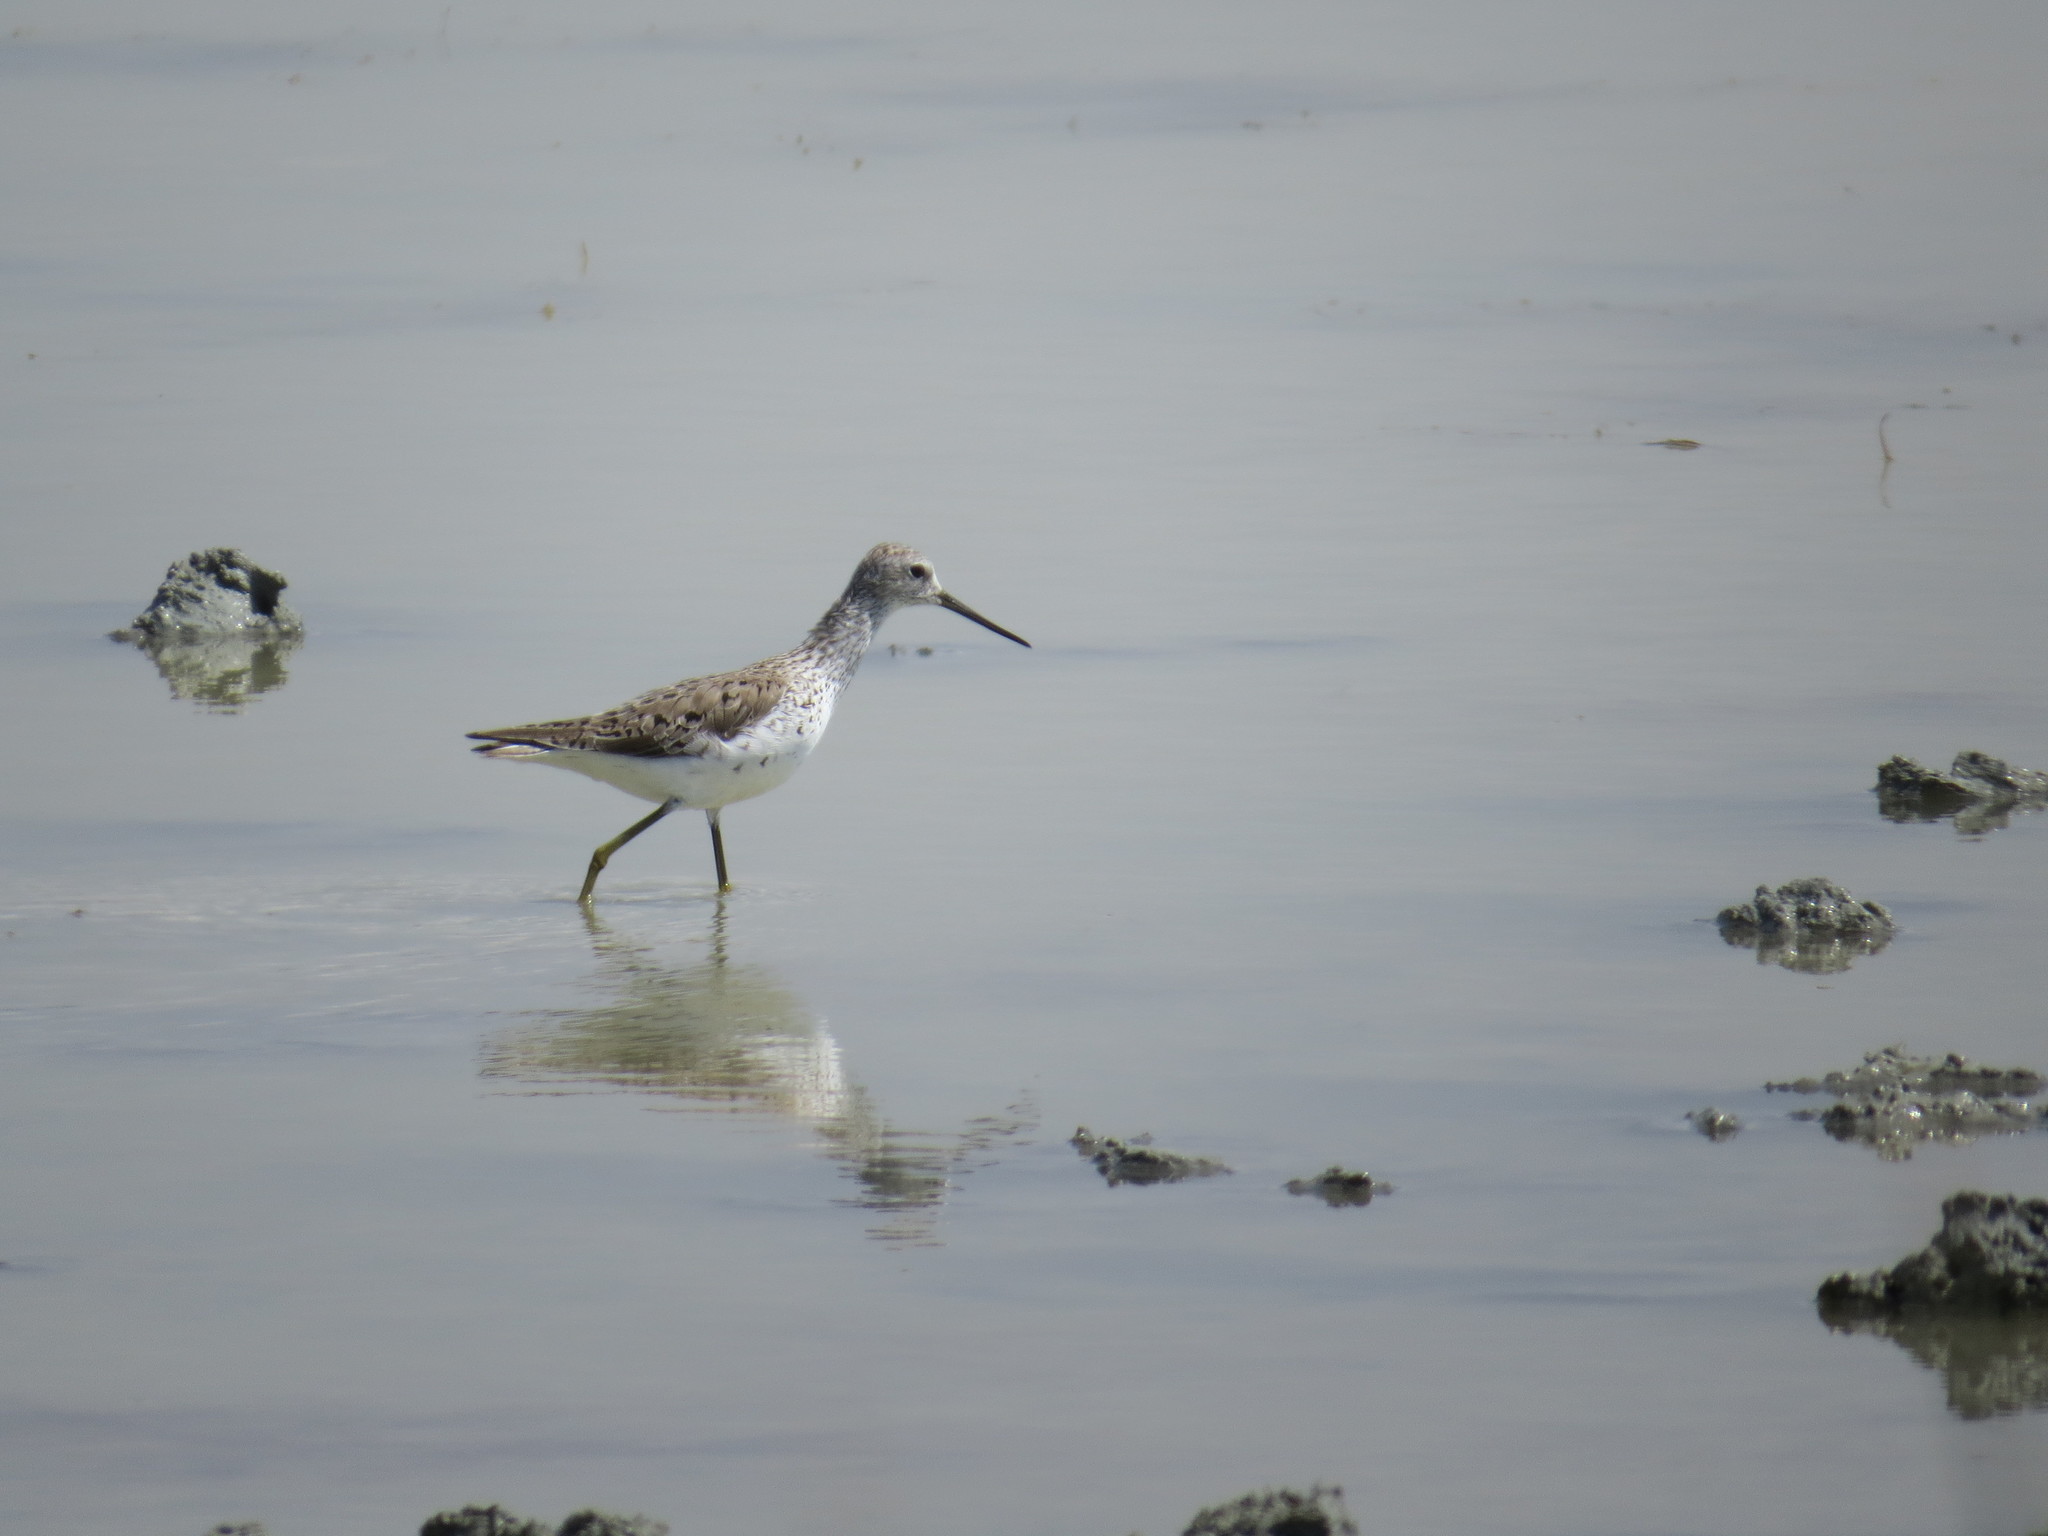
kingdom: Animalia
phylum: Chordata
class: Aves
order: Charadriiformes
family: Scolopacidae
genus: Tringa
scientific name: Tringa stagnatilis
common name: Marsh sandpiper
